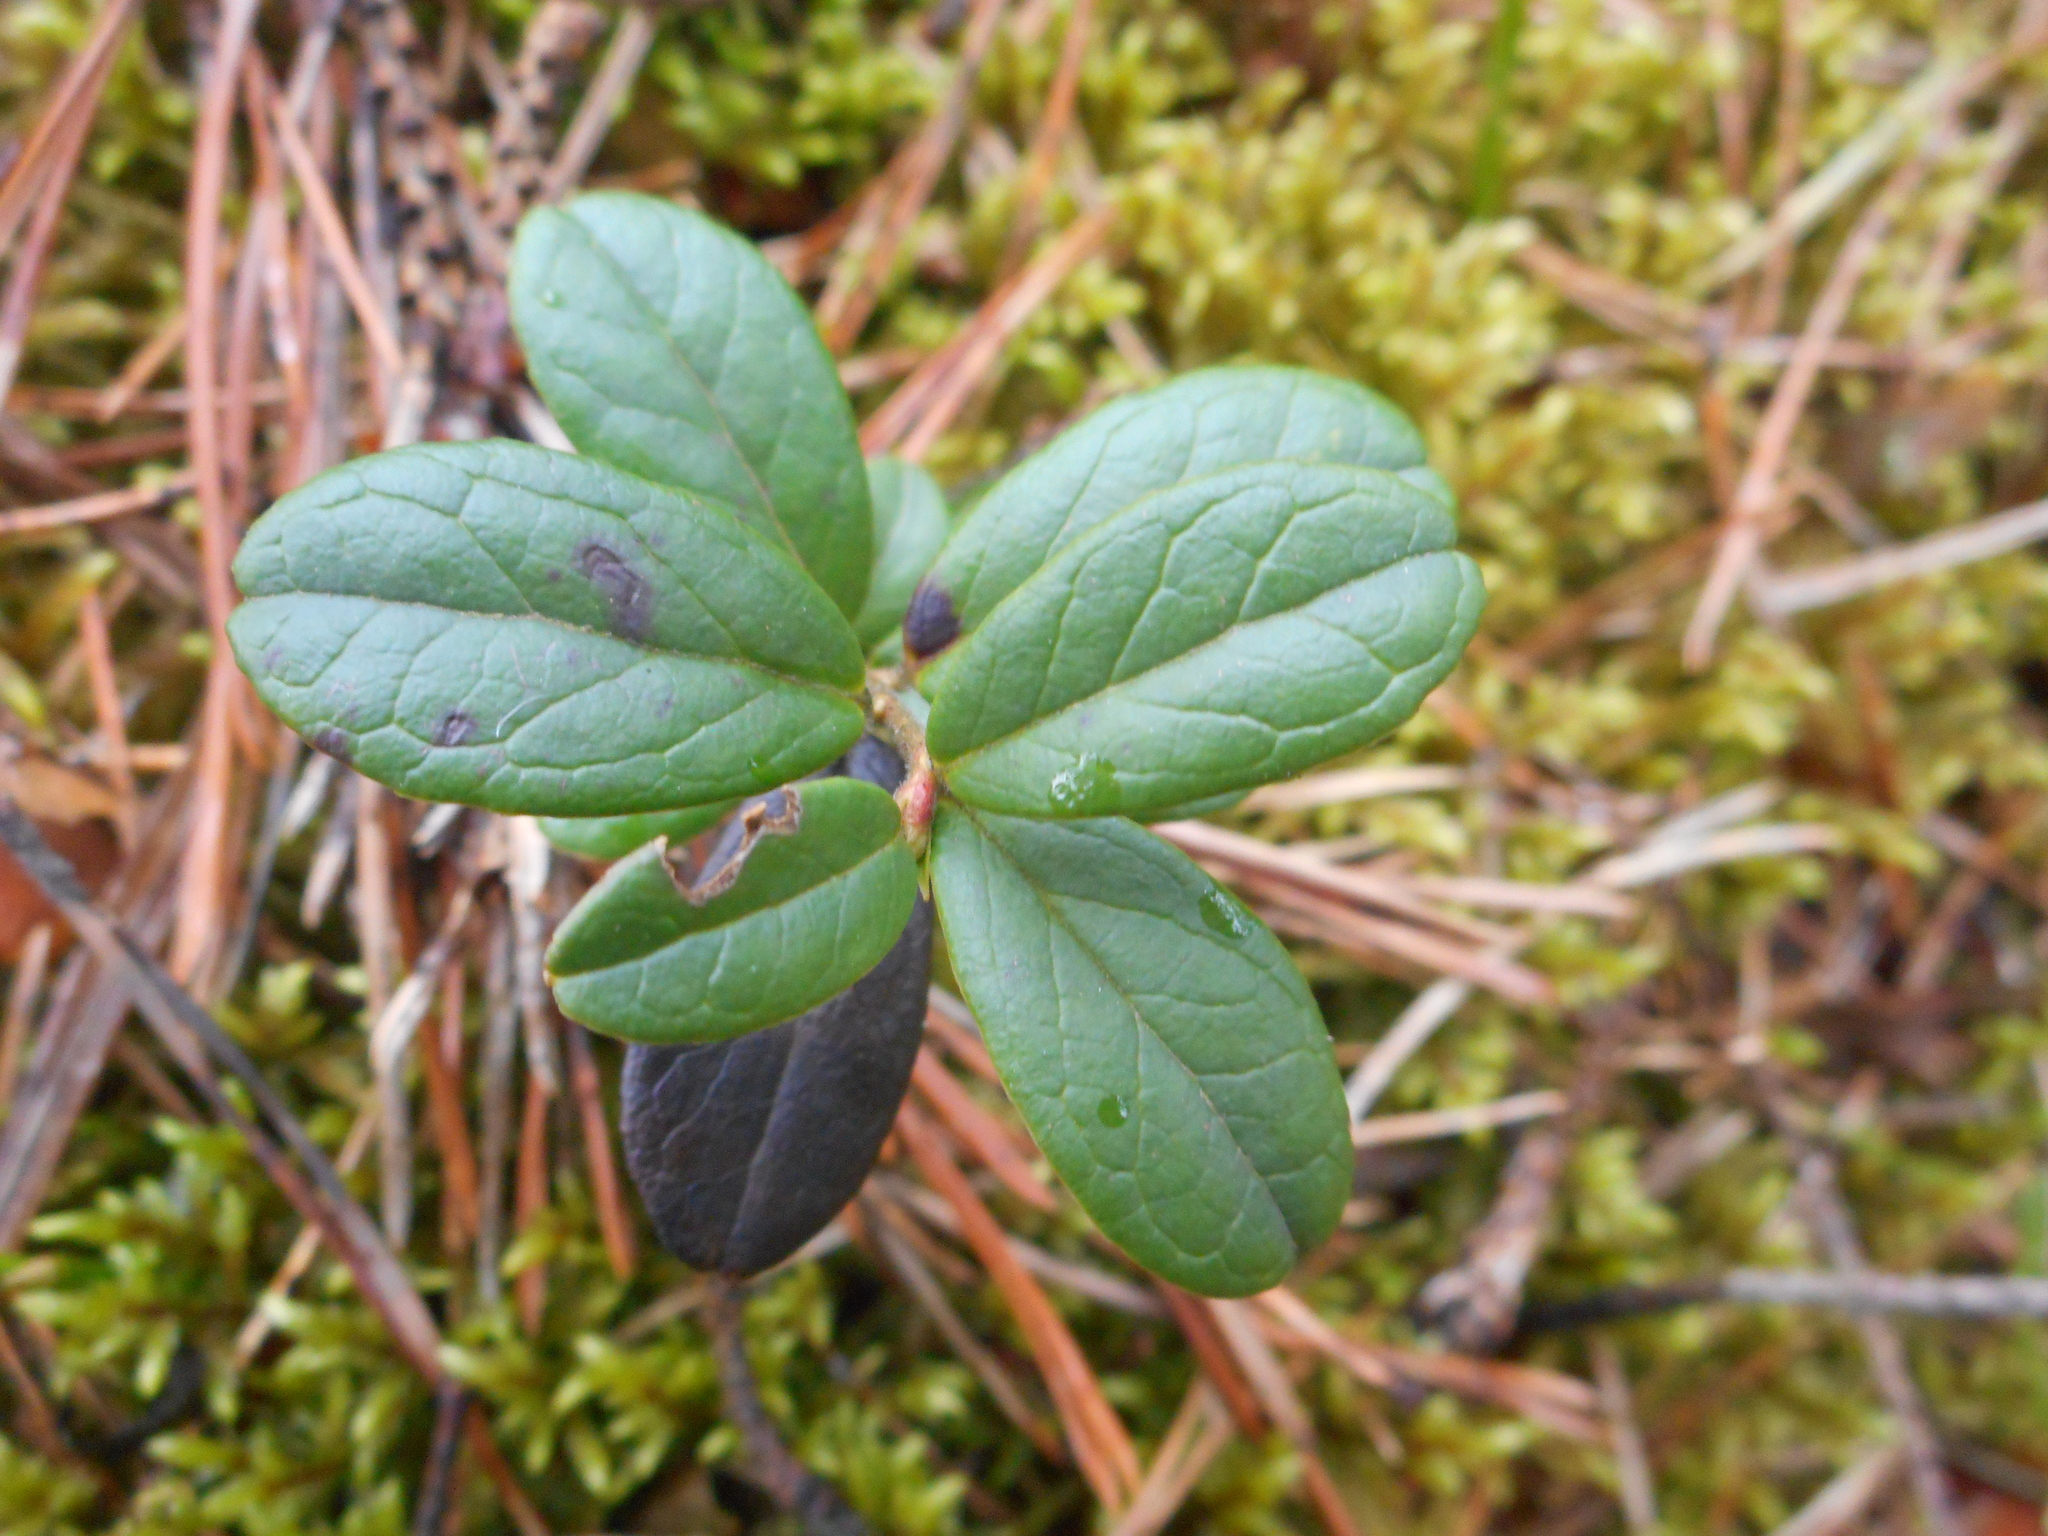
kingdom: Plantae
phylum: Tracheophyta
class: Magnoliopsida
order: Ericales
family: Ericaceae
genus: Vaccinium
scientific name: Vaccinium vitis-idaea
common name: Cowberry
